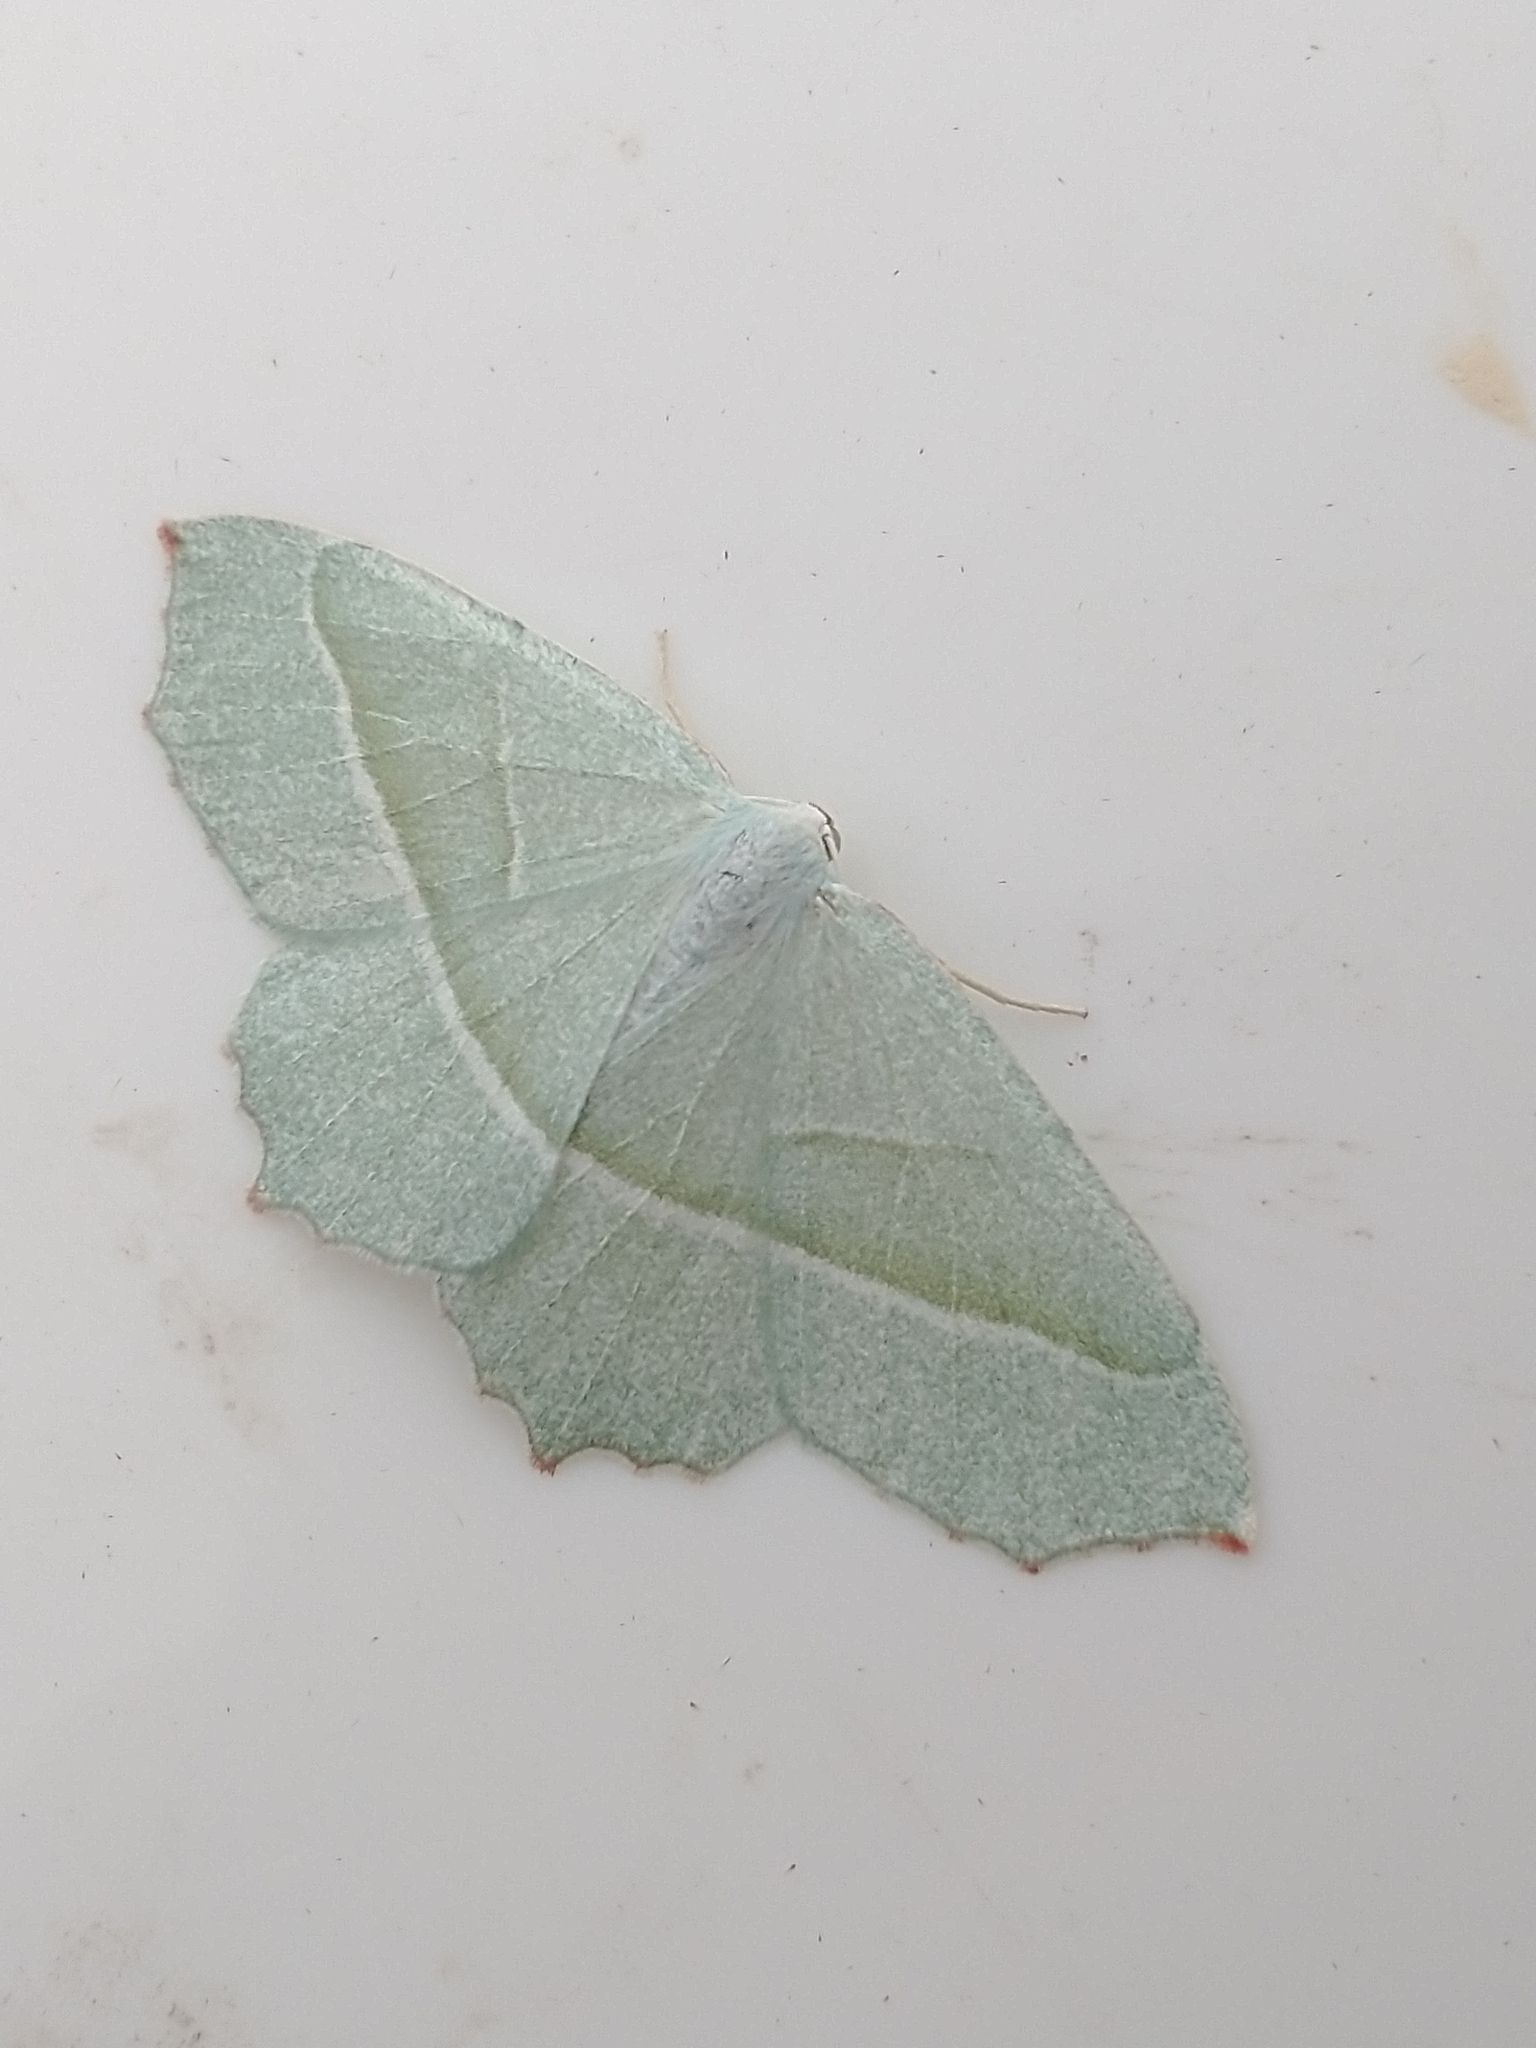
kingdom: Animalia
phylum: Arthropoda
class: Insecta
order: Lepidoptera
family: Geometridae
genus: Campaea
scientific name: Campaea margaritaria
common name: Light emerald
